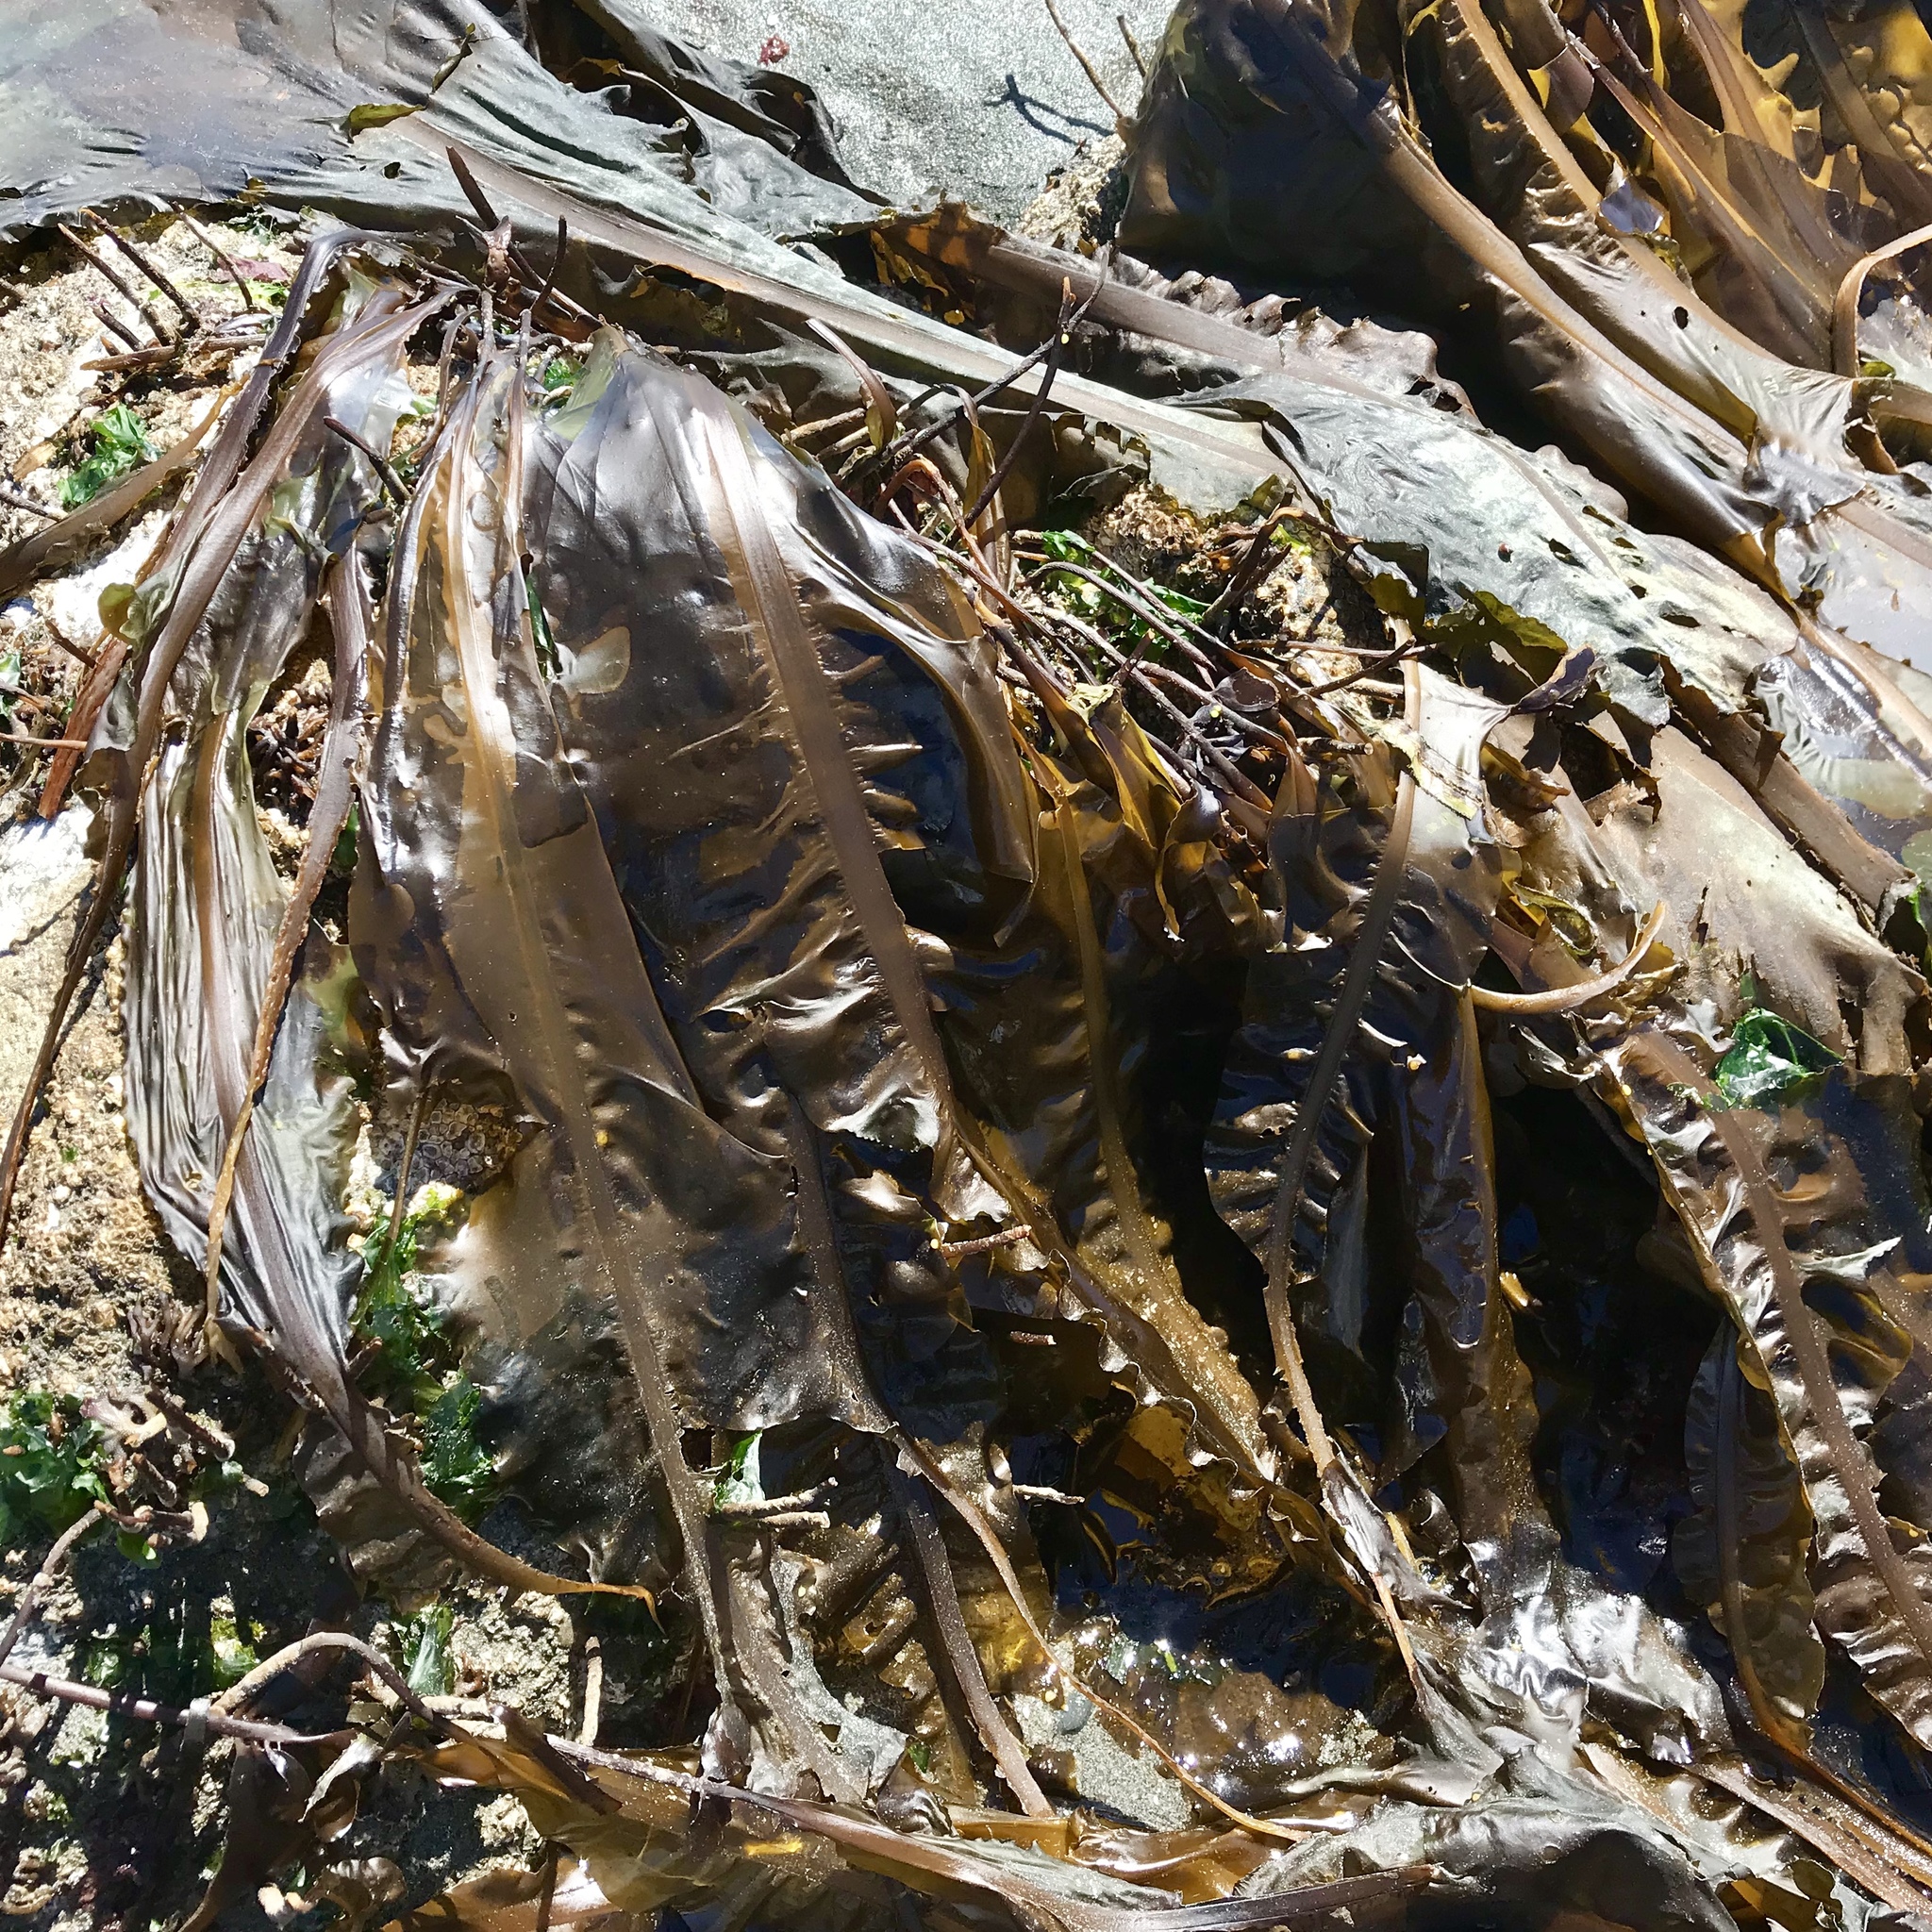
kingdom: Chromista
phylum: Ochrophyta
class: Phaeophyceae
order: Laminariales
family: Alariaceae
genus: Alaria
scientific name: Alaria marginata
